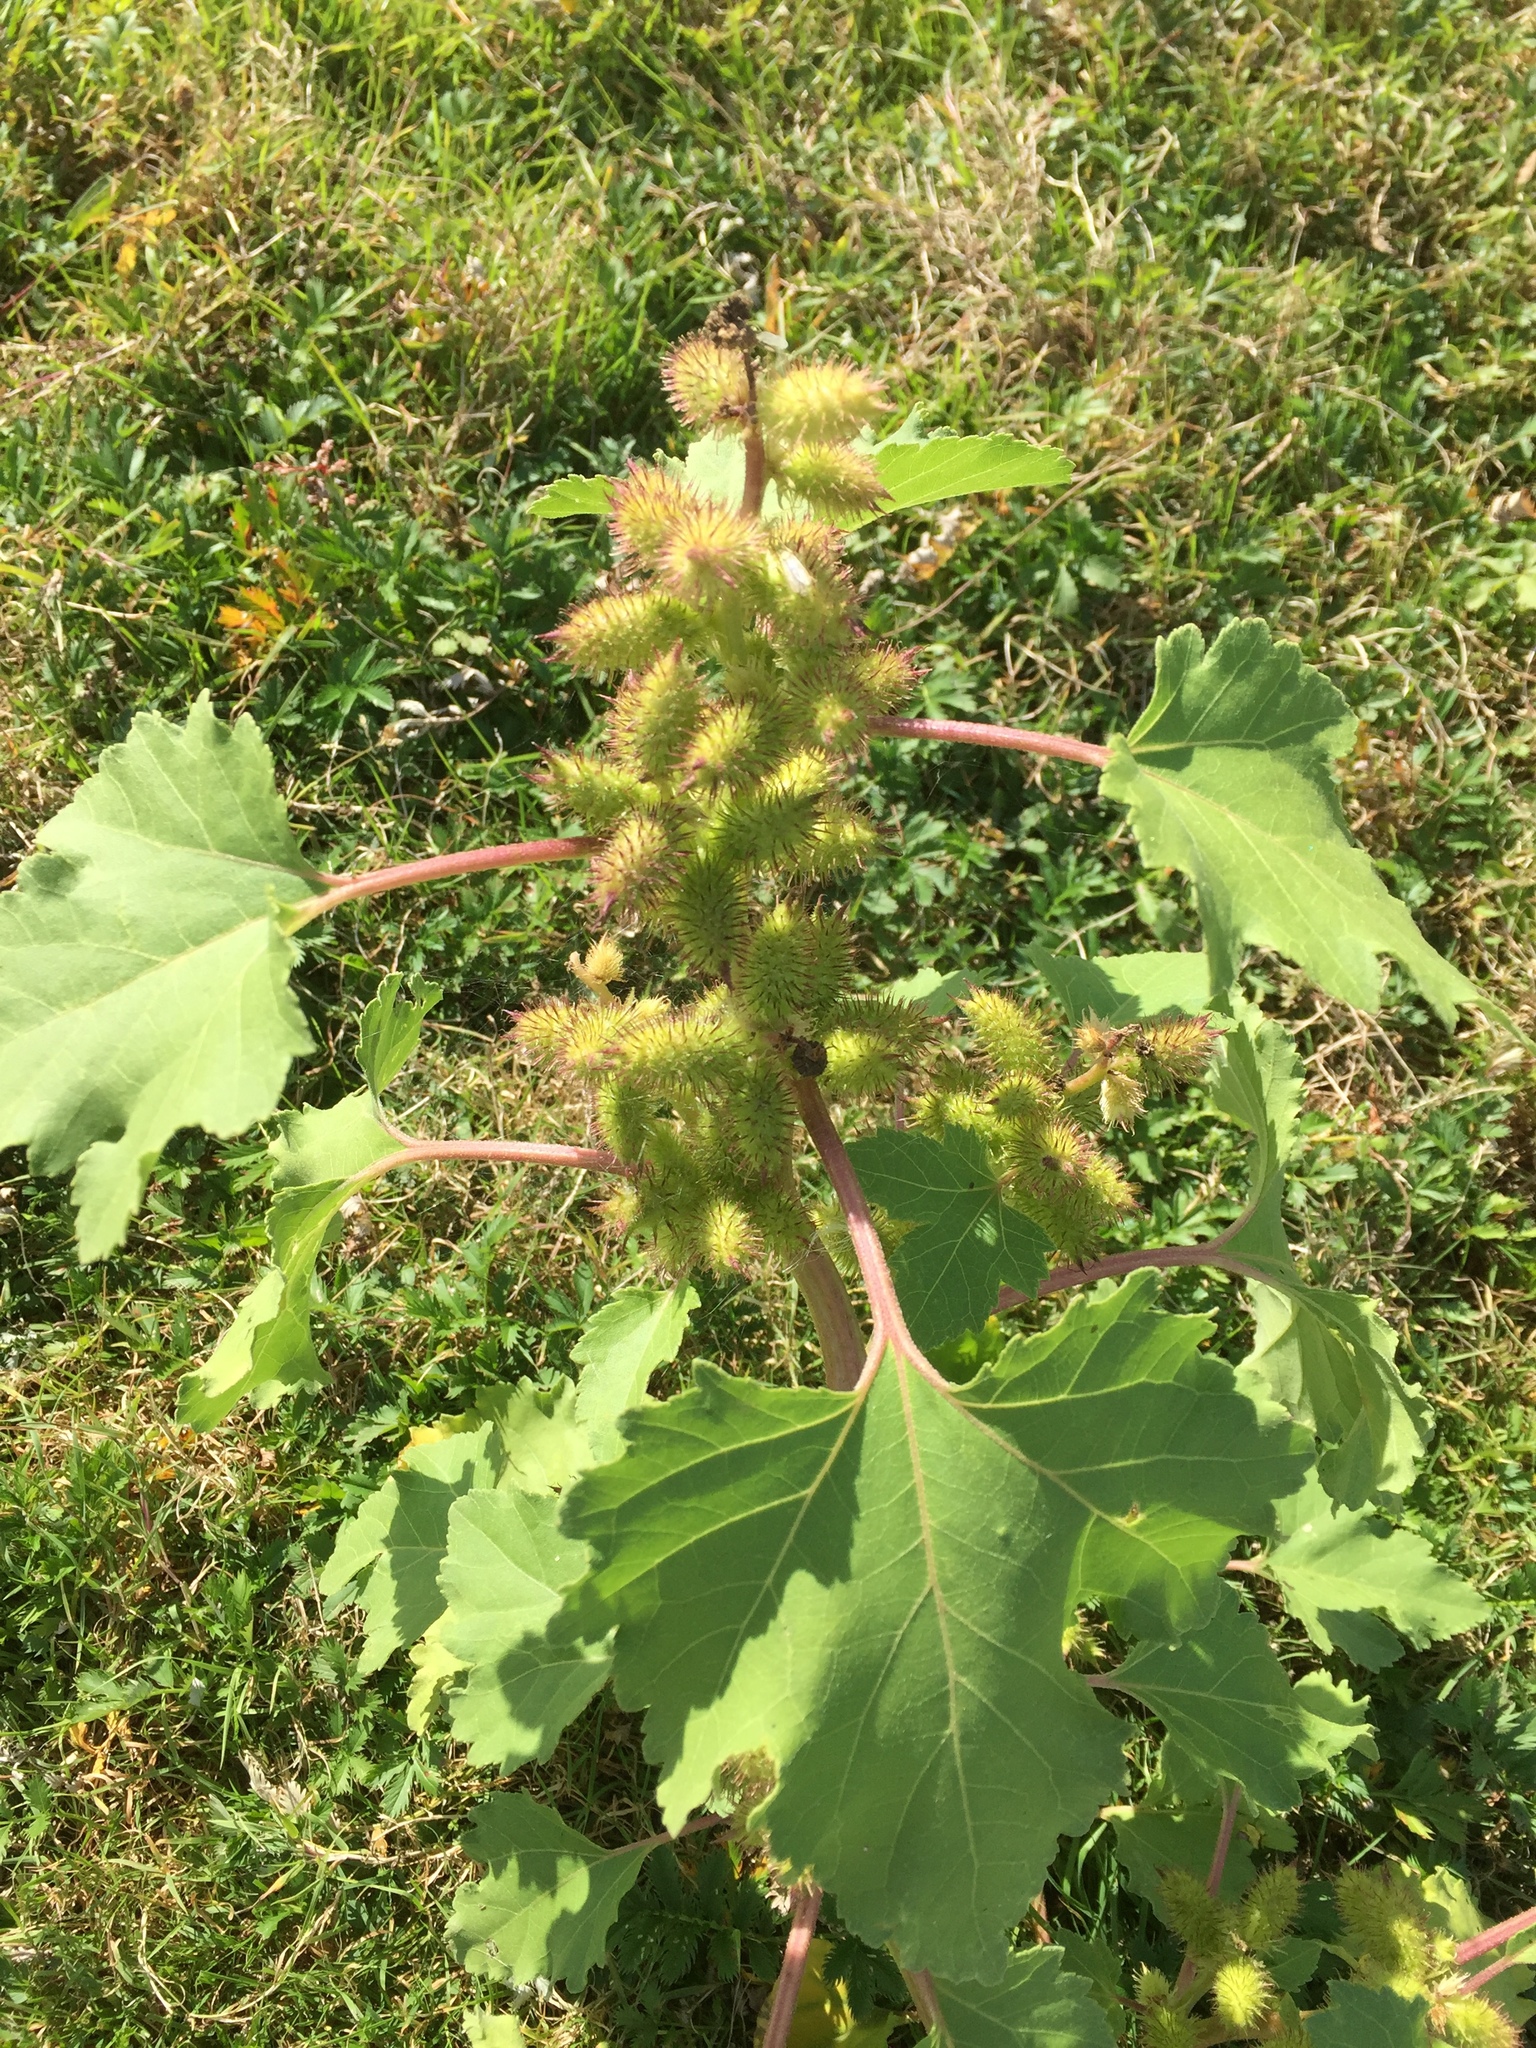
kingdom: Plantae
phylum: Tracheophyta
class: Magnoliopsida
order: Asterales
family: Asteraceae
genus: Xanthium
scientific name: Xanthium strumarium
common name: Rough cocklebur
